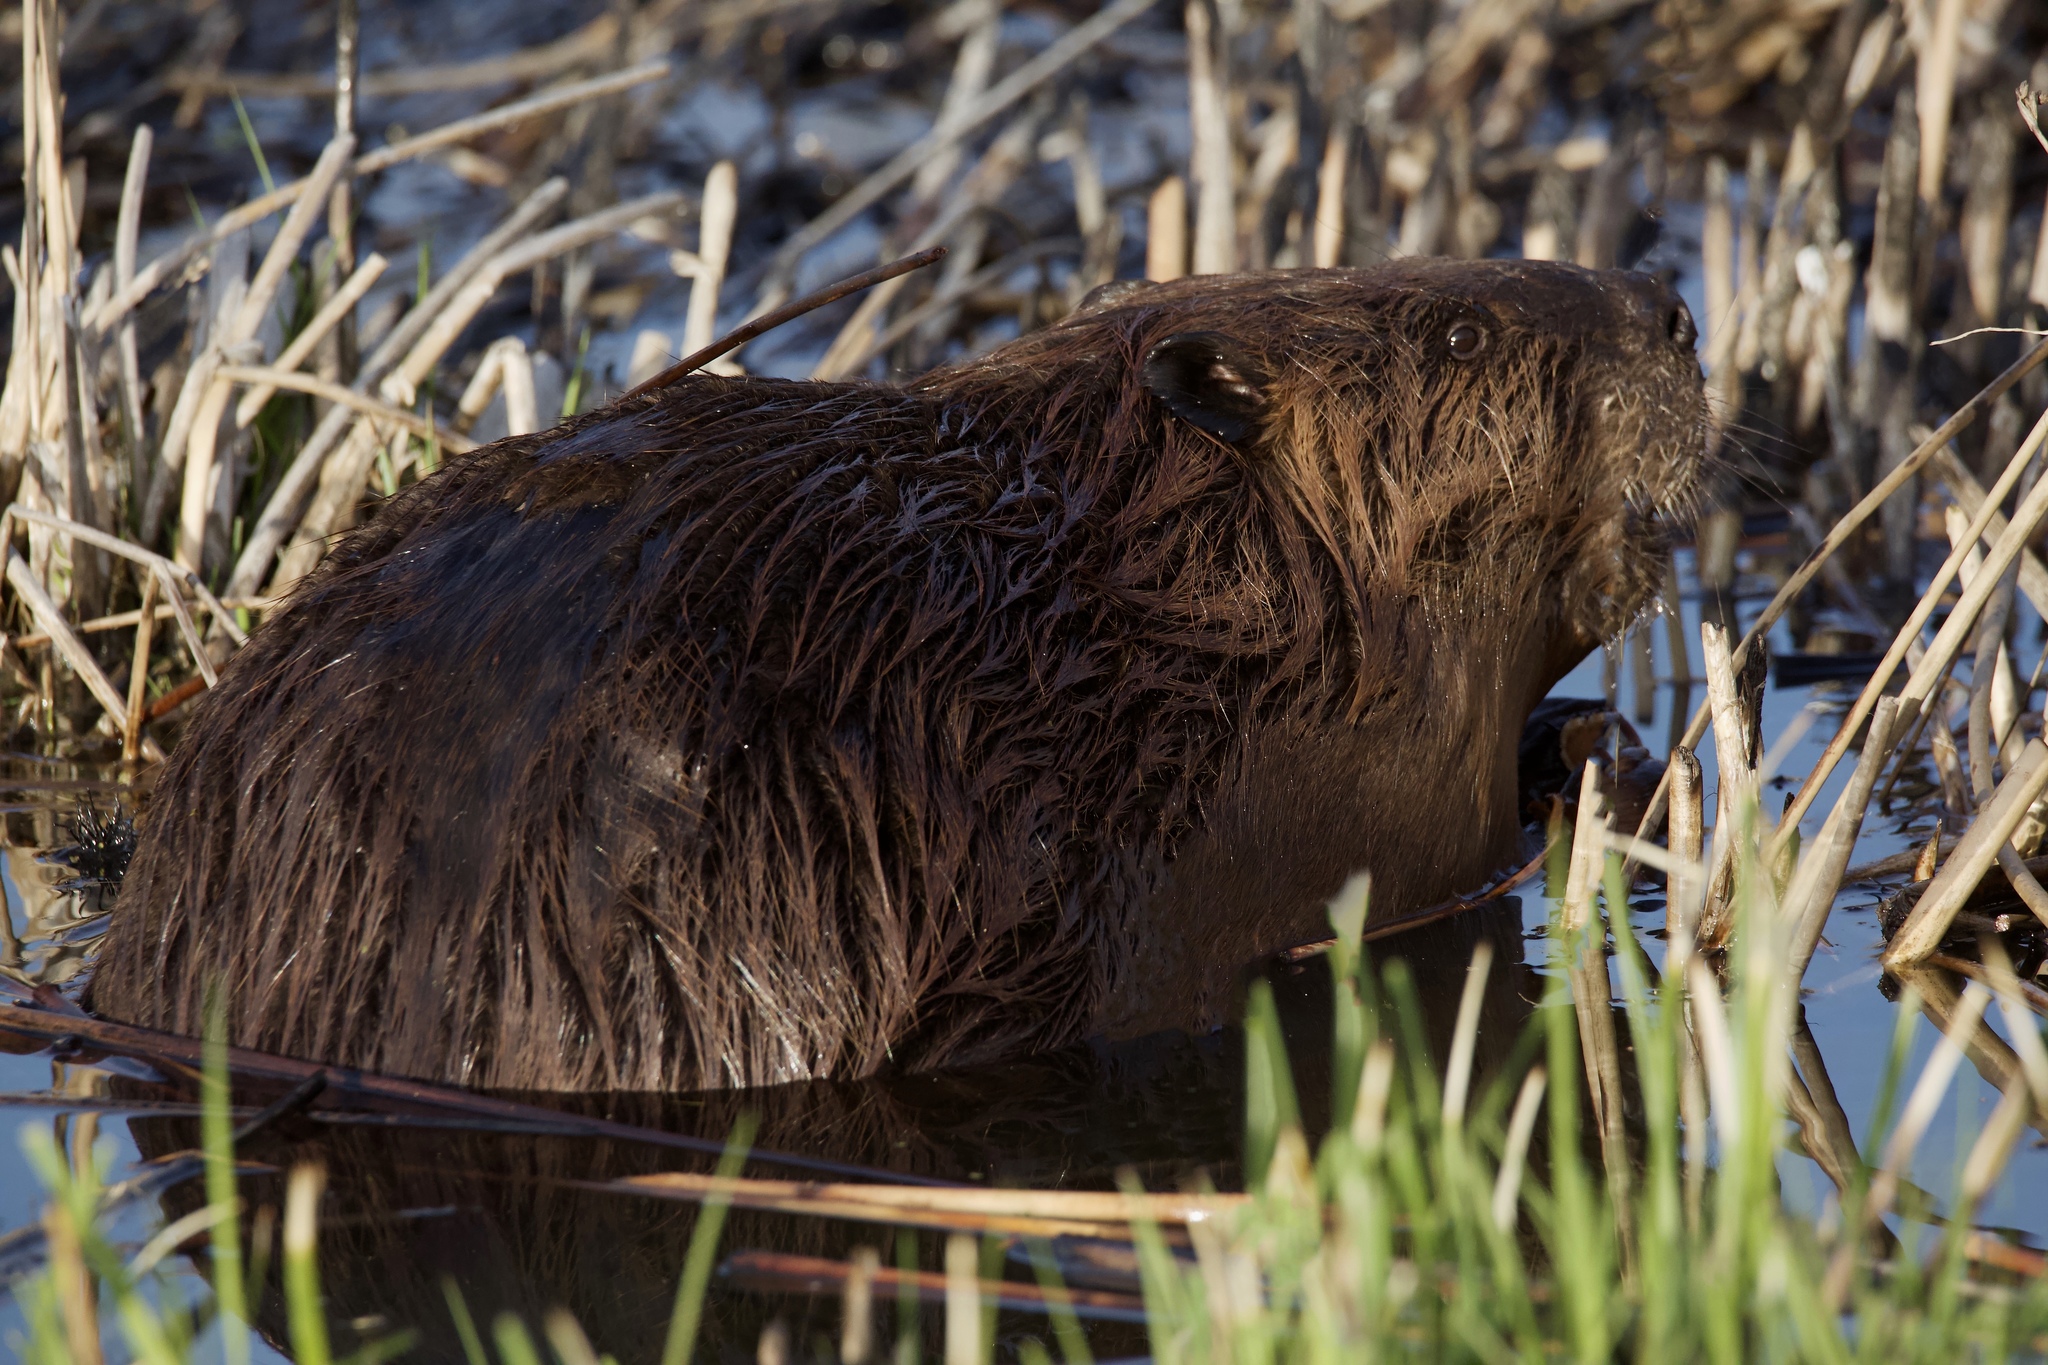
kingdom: Animalia
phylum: Chordata
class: Mammalia
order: Rodentia
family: Castoridae
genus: Castor
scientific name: Castor canadensis
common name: American beaver
